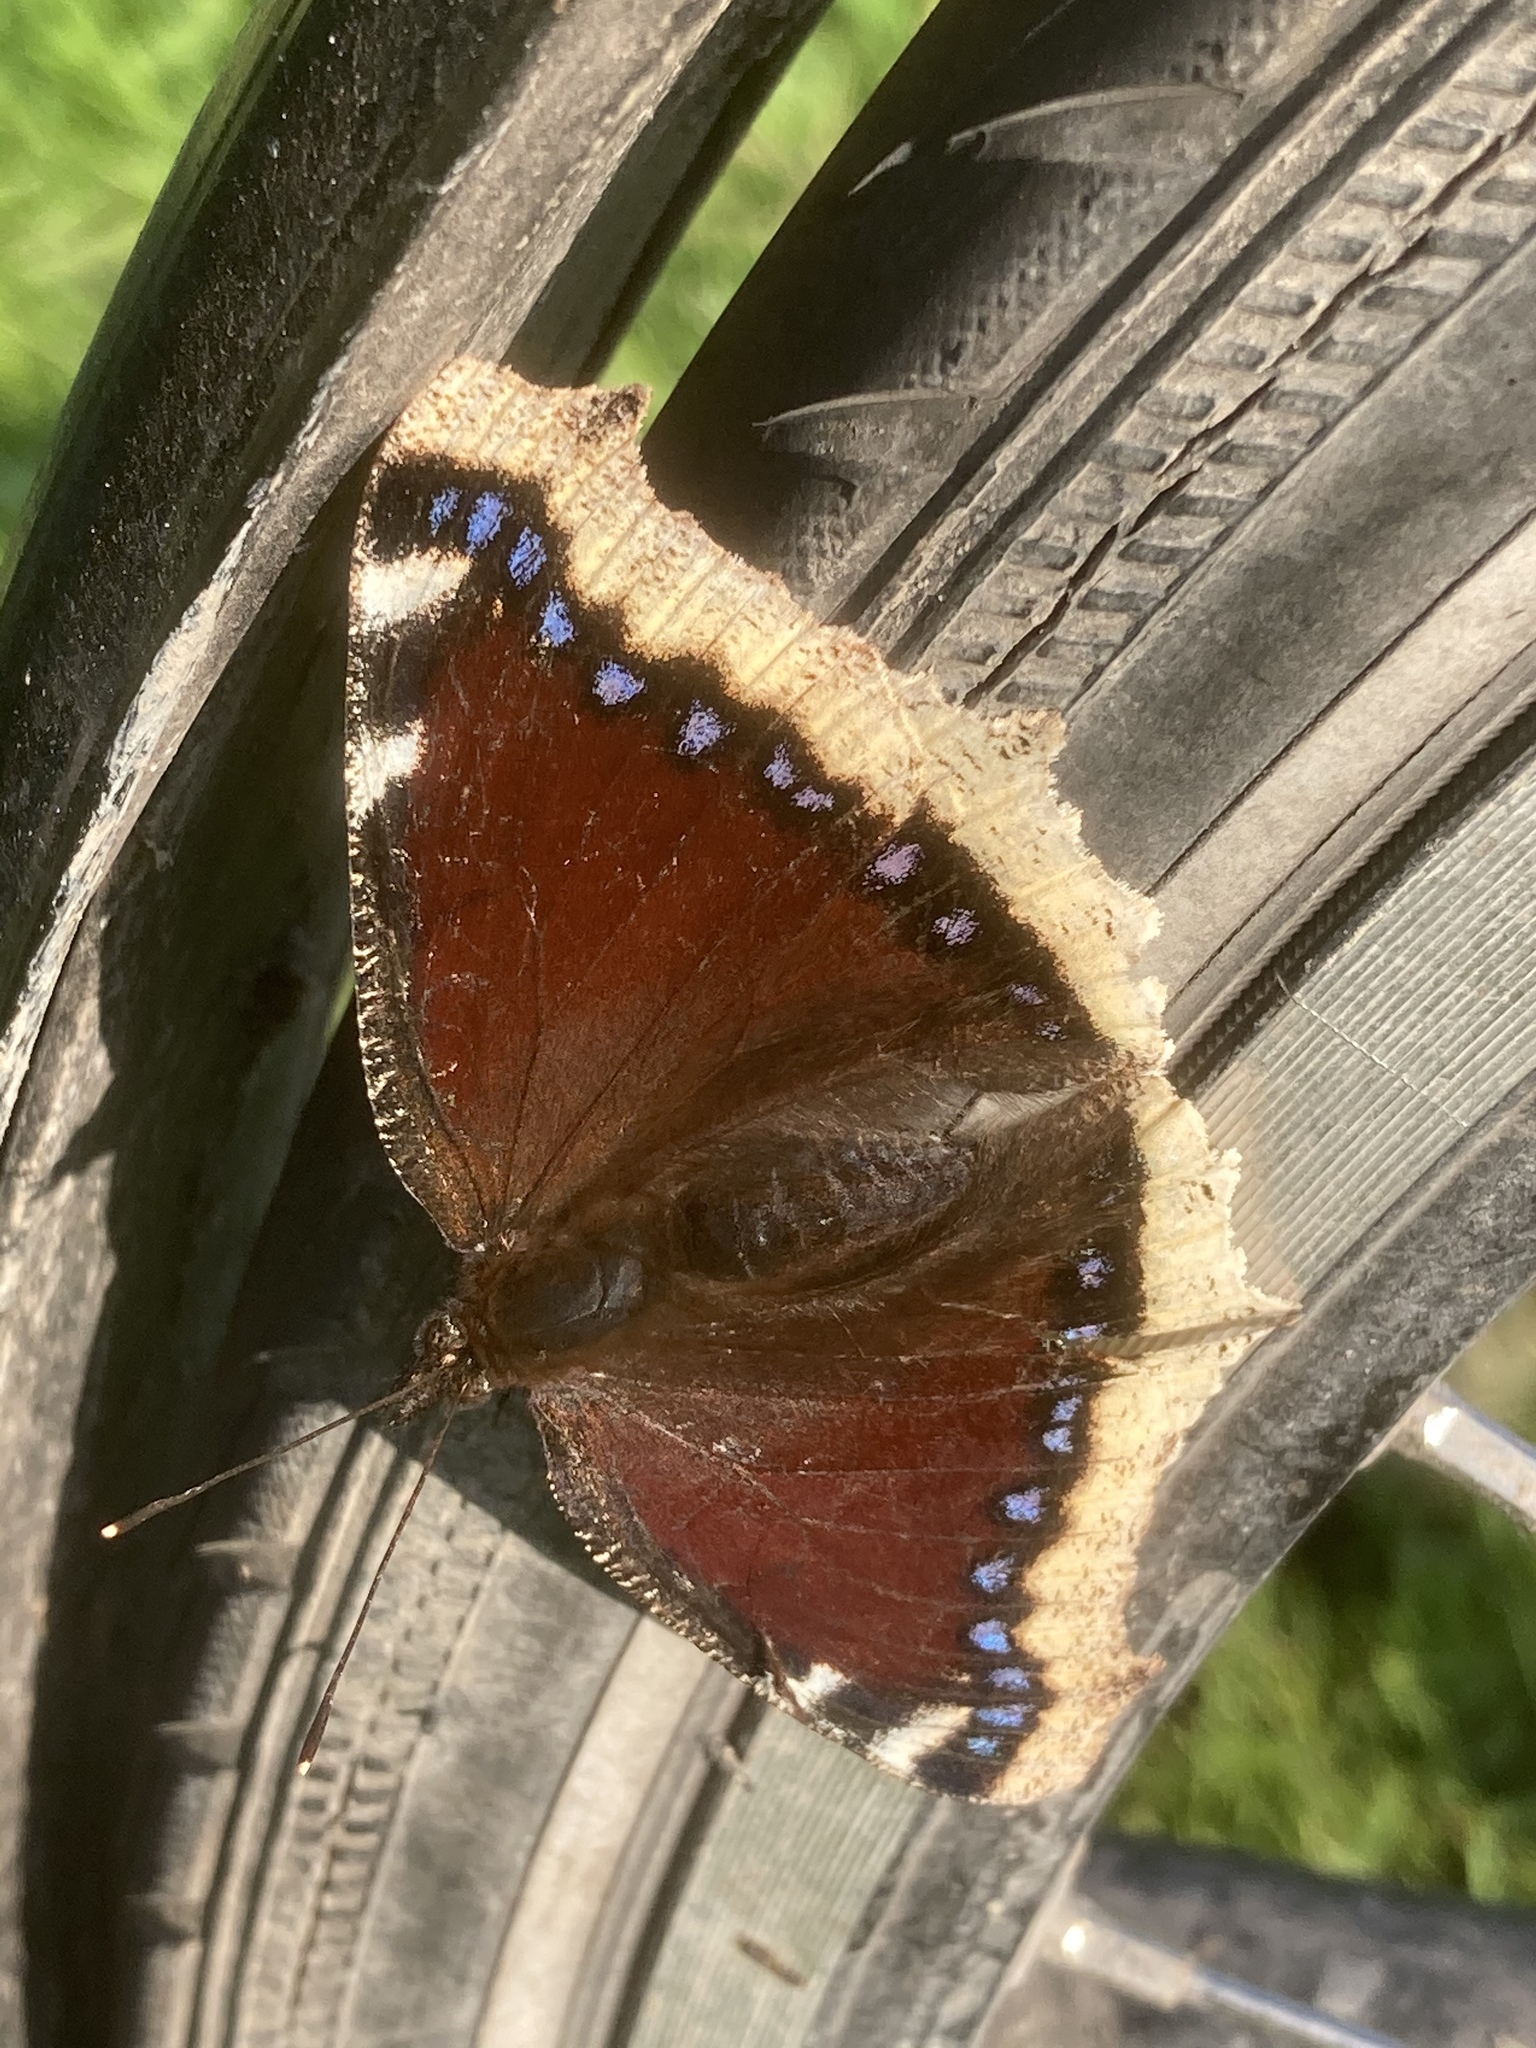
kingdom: Animalia
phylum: Arthropoda
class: Insecta
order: Lepidoptera
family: Nymphalidae
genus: Nymphalis
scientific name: Nymphalis antiopa
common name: Camberwell beauty
